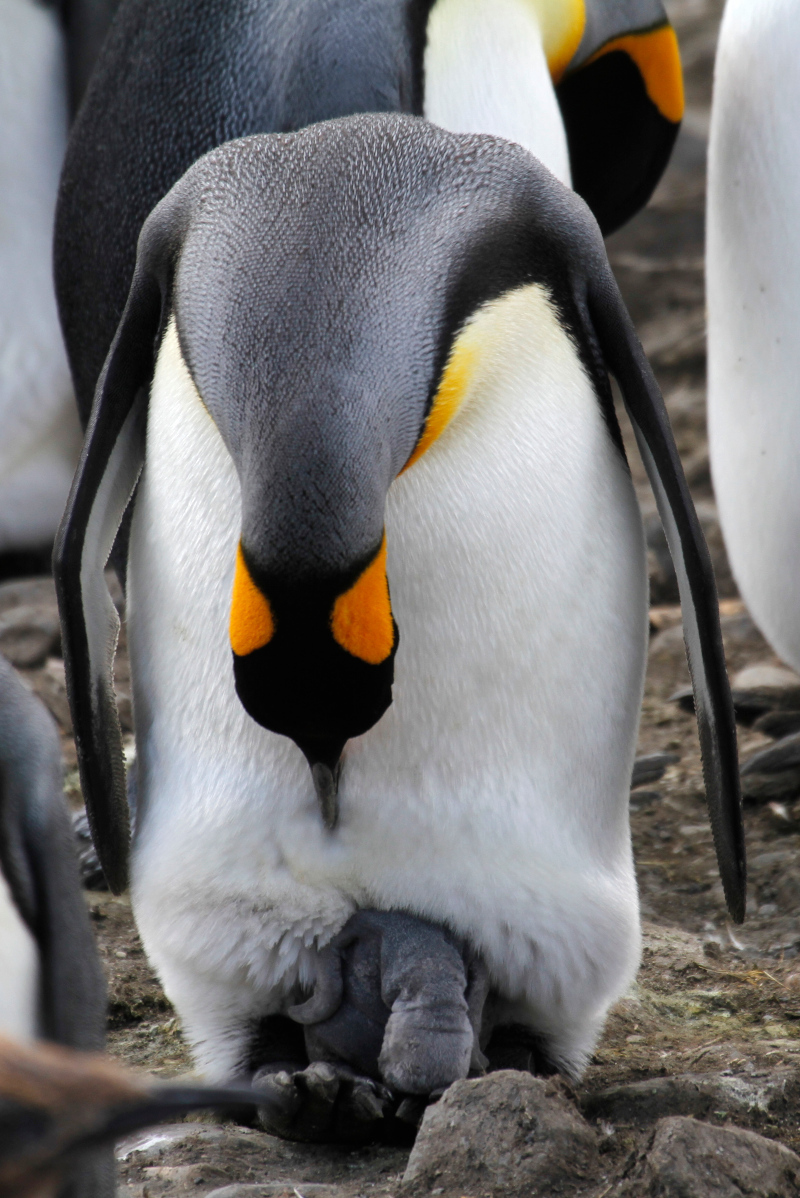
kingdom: Animalia
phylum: Chordata
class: Aves
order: Sphenisciformes
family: Spheniscidae
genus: Aptenodytes
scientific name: Aptenodytes patagonicus
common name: King penguin
